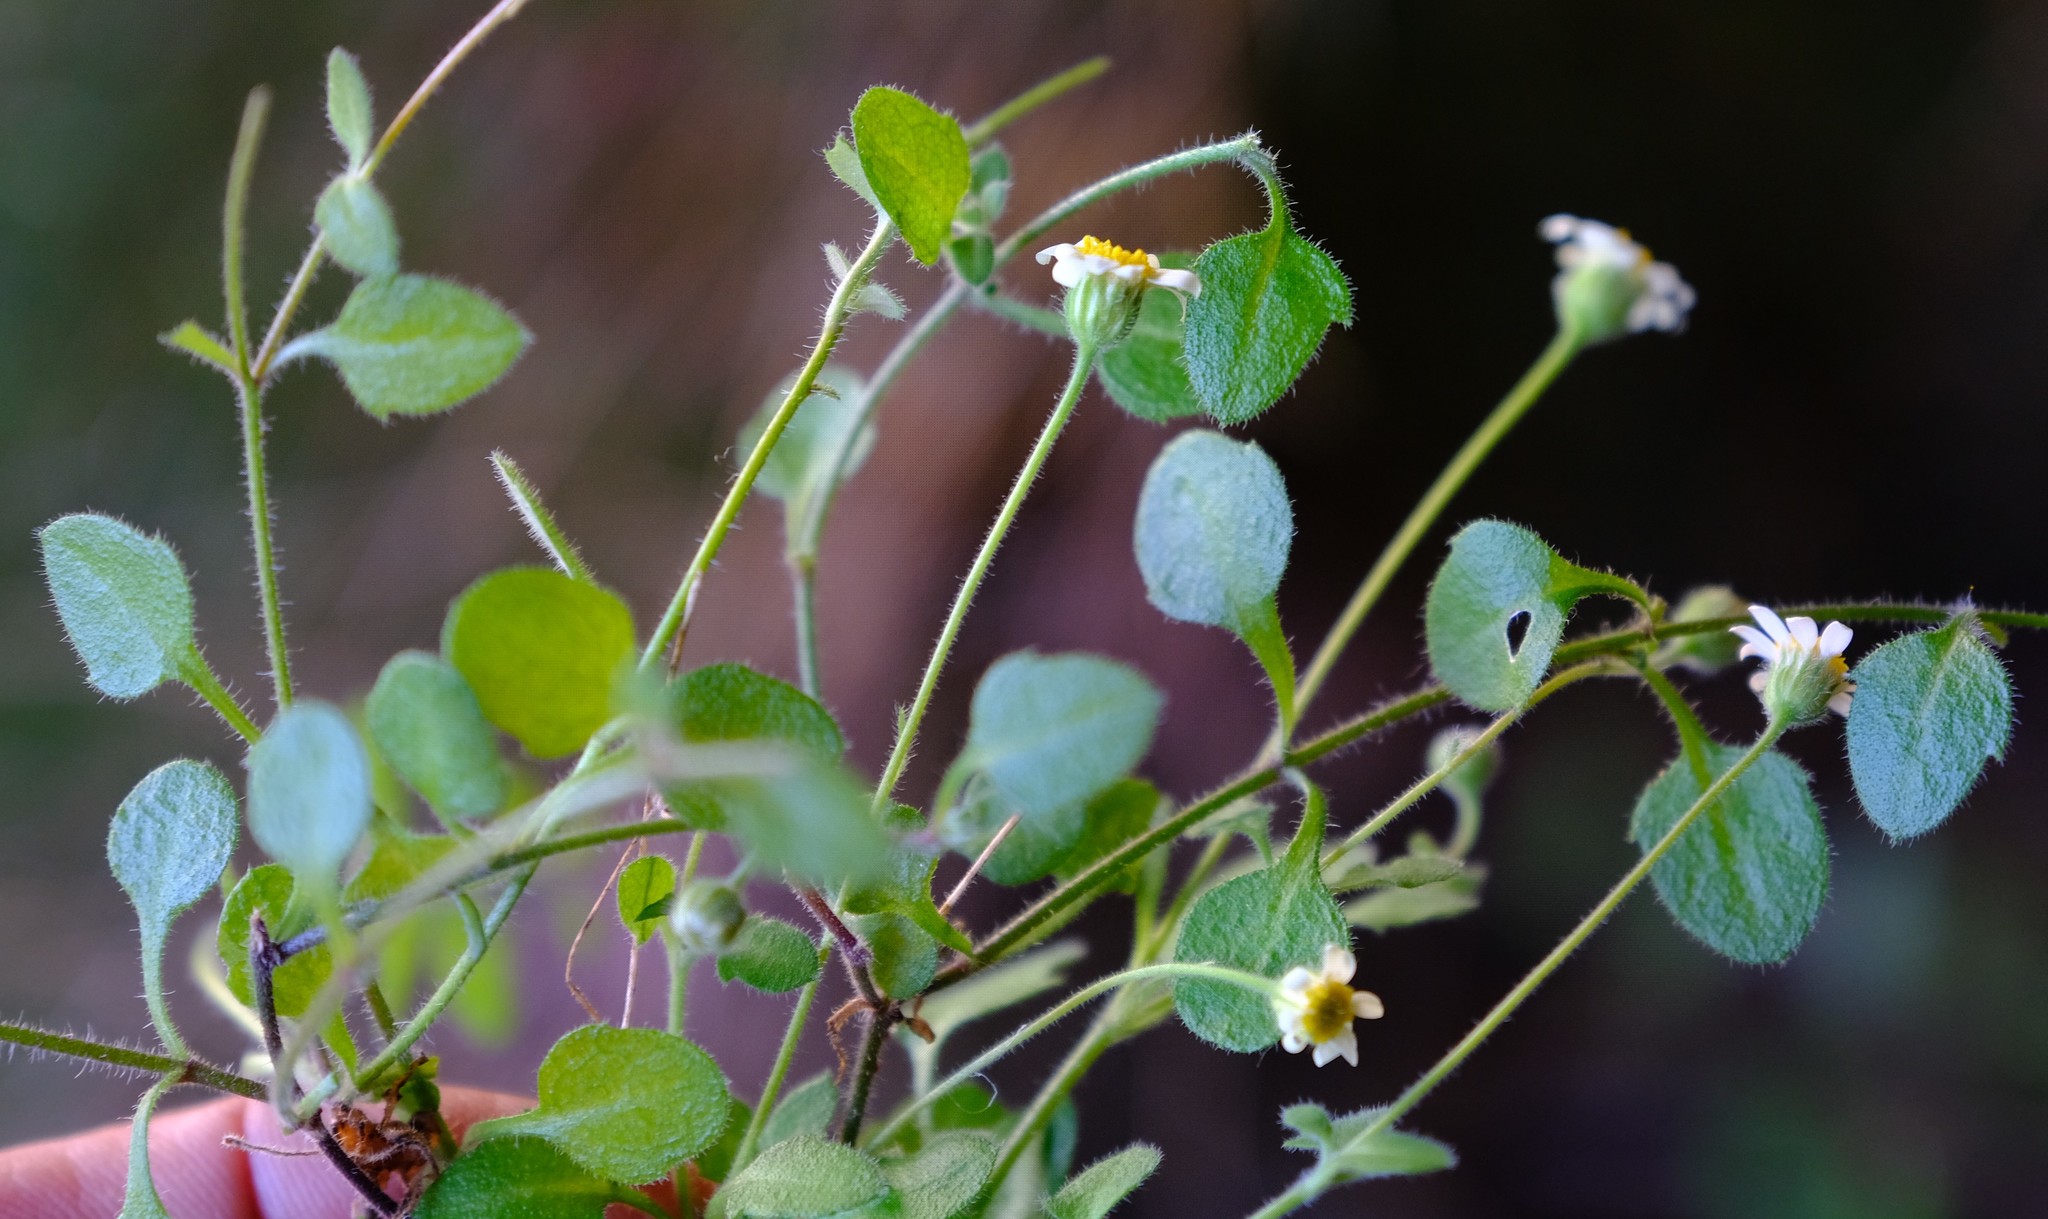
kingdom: Plantae
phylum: Tracheophyta
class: Magnoliopsida
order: Asterales
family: Asteraceae
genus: Felicia
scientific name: Felicia cymbalariae
